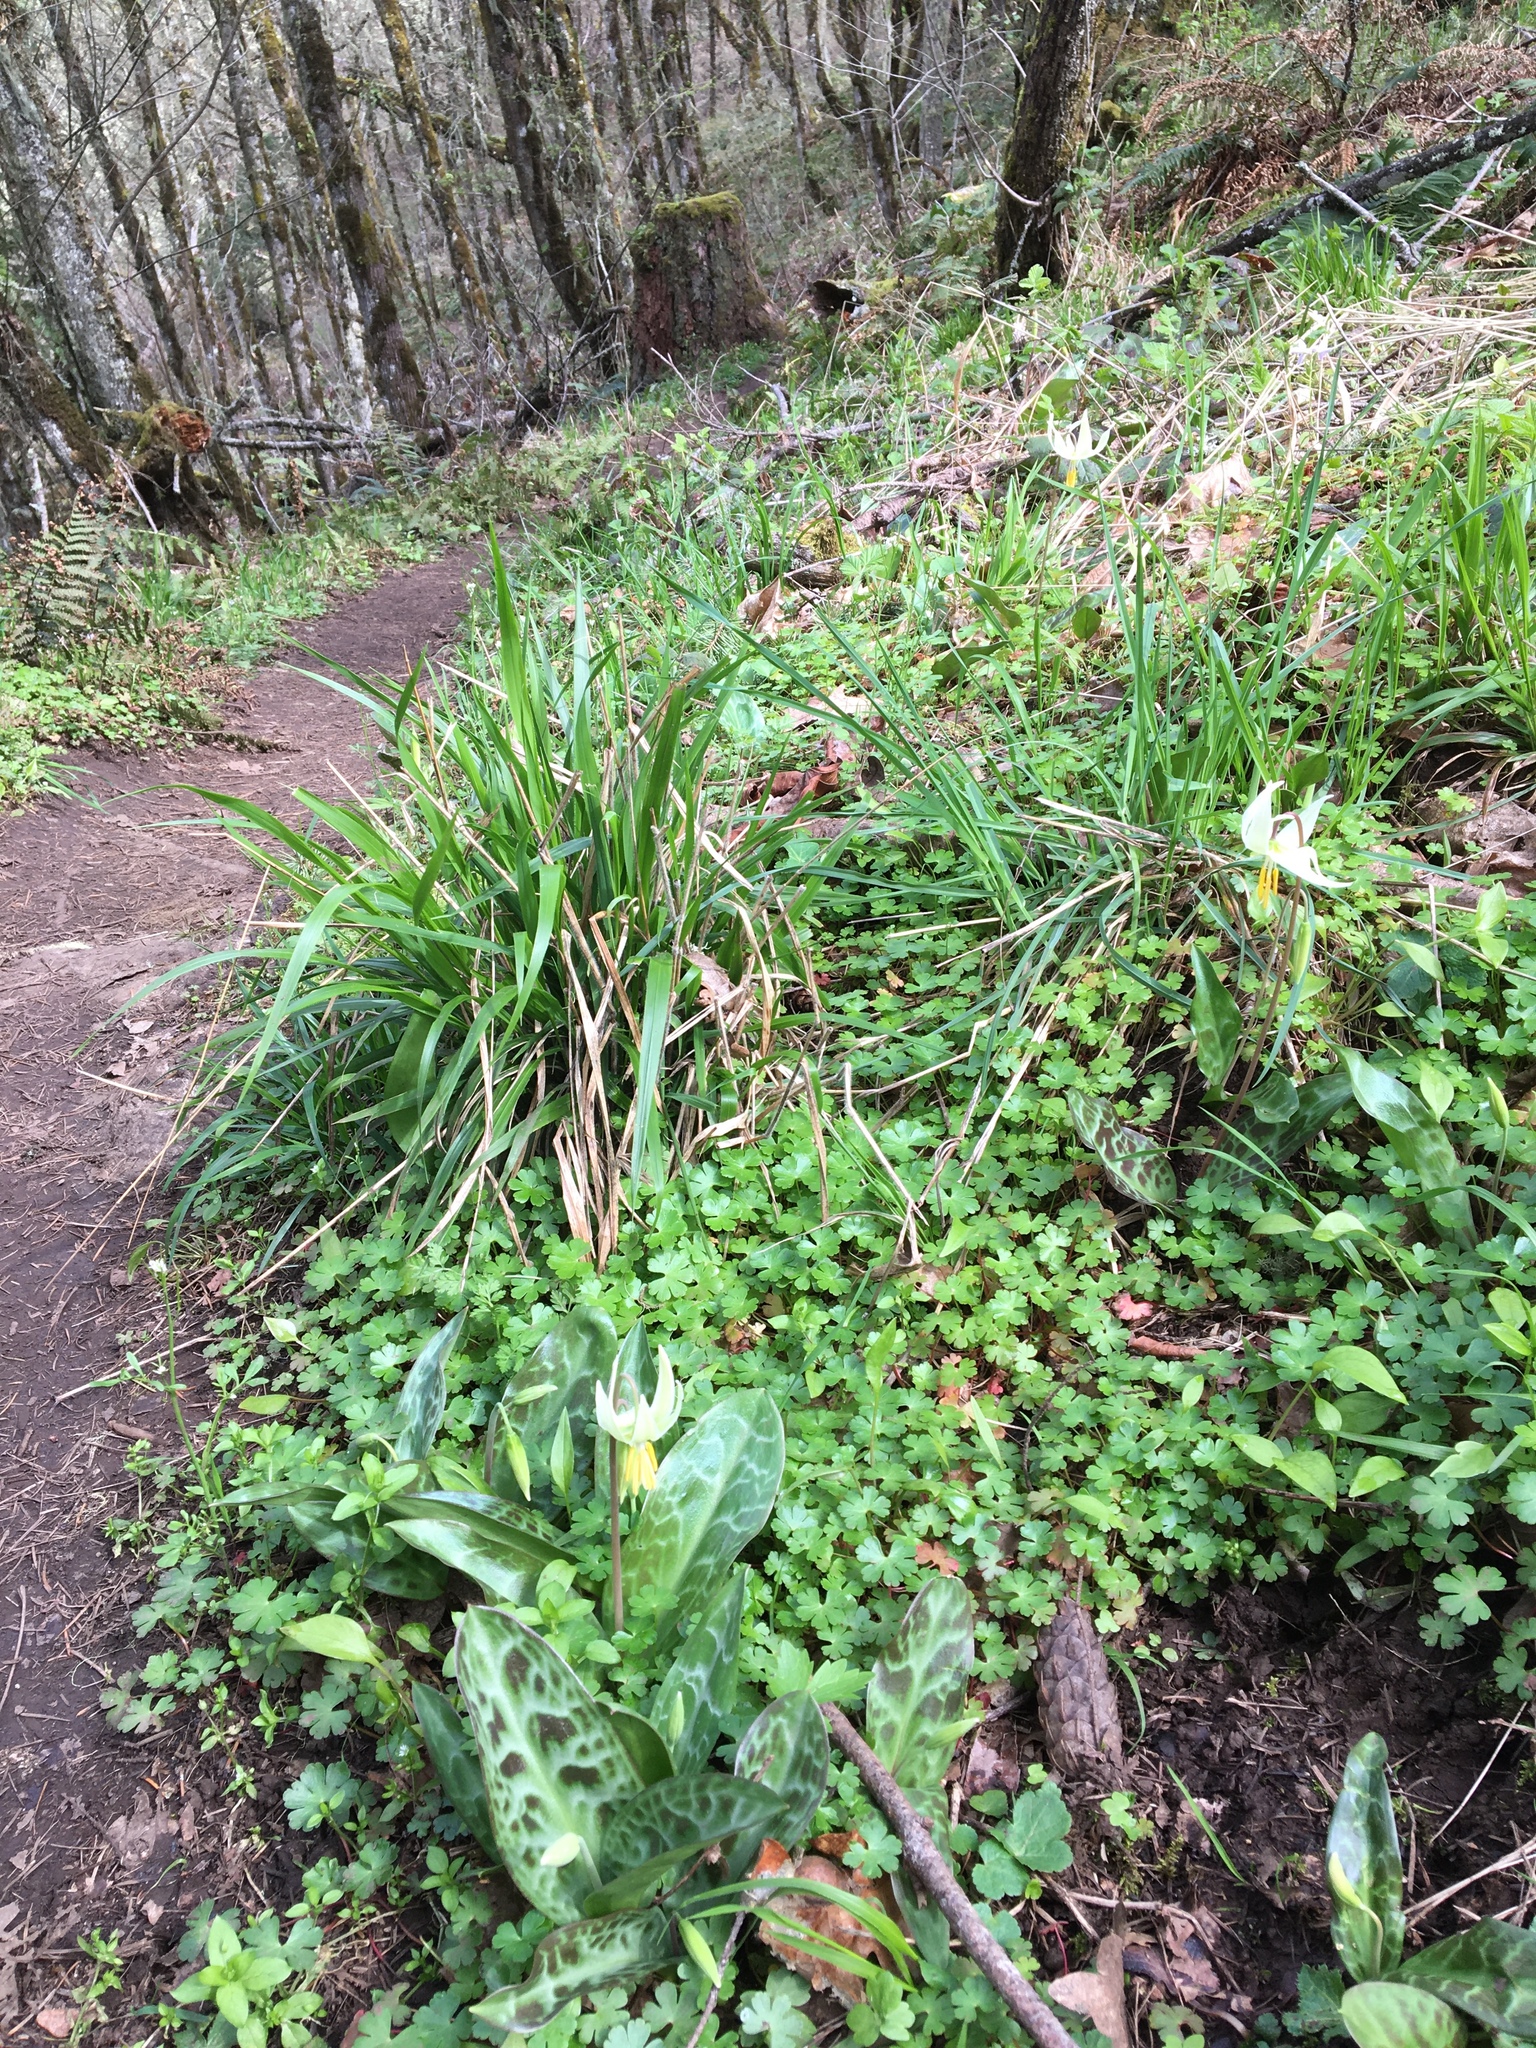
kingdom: Plantae
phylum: Tracheophyta
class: Liliopsida
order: Liliales
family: Liliaceae
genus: Erythronium
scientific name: Erythronium oregonum
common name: Giant adder's-tongue
